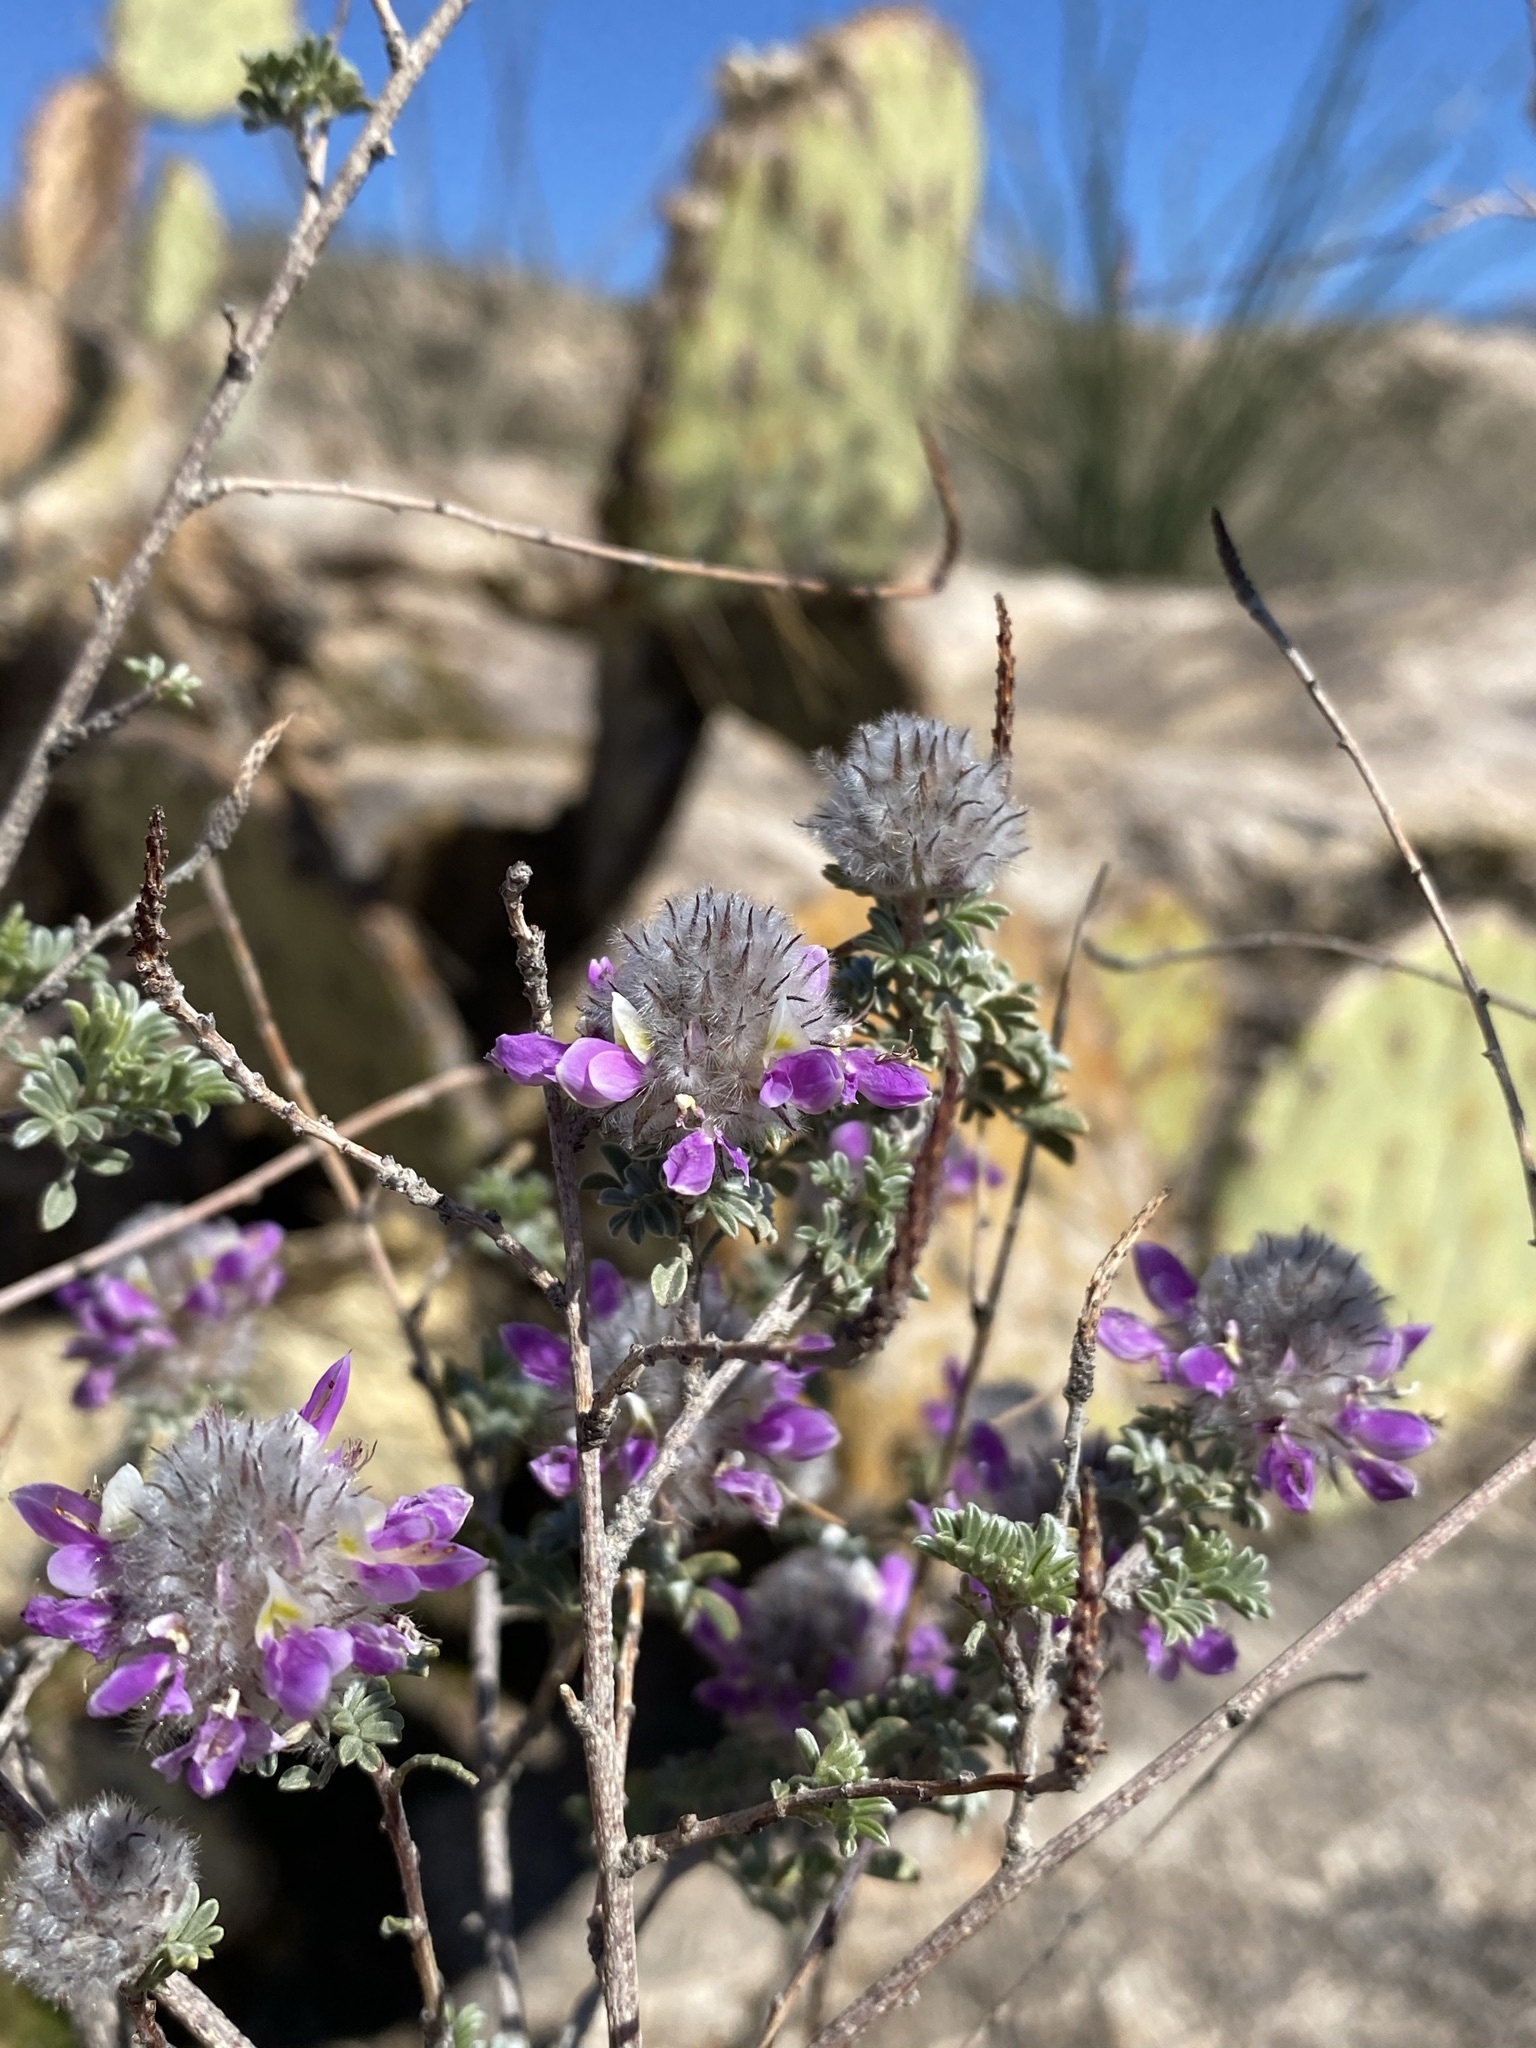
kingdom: Plantae
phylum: Tracheophyta
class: Magnoliopsida
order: Fabales
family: Fabaceae
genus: Dalea
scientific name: Dalea pulchra
